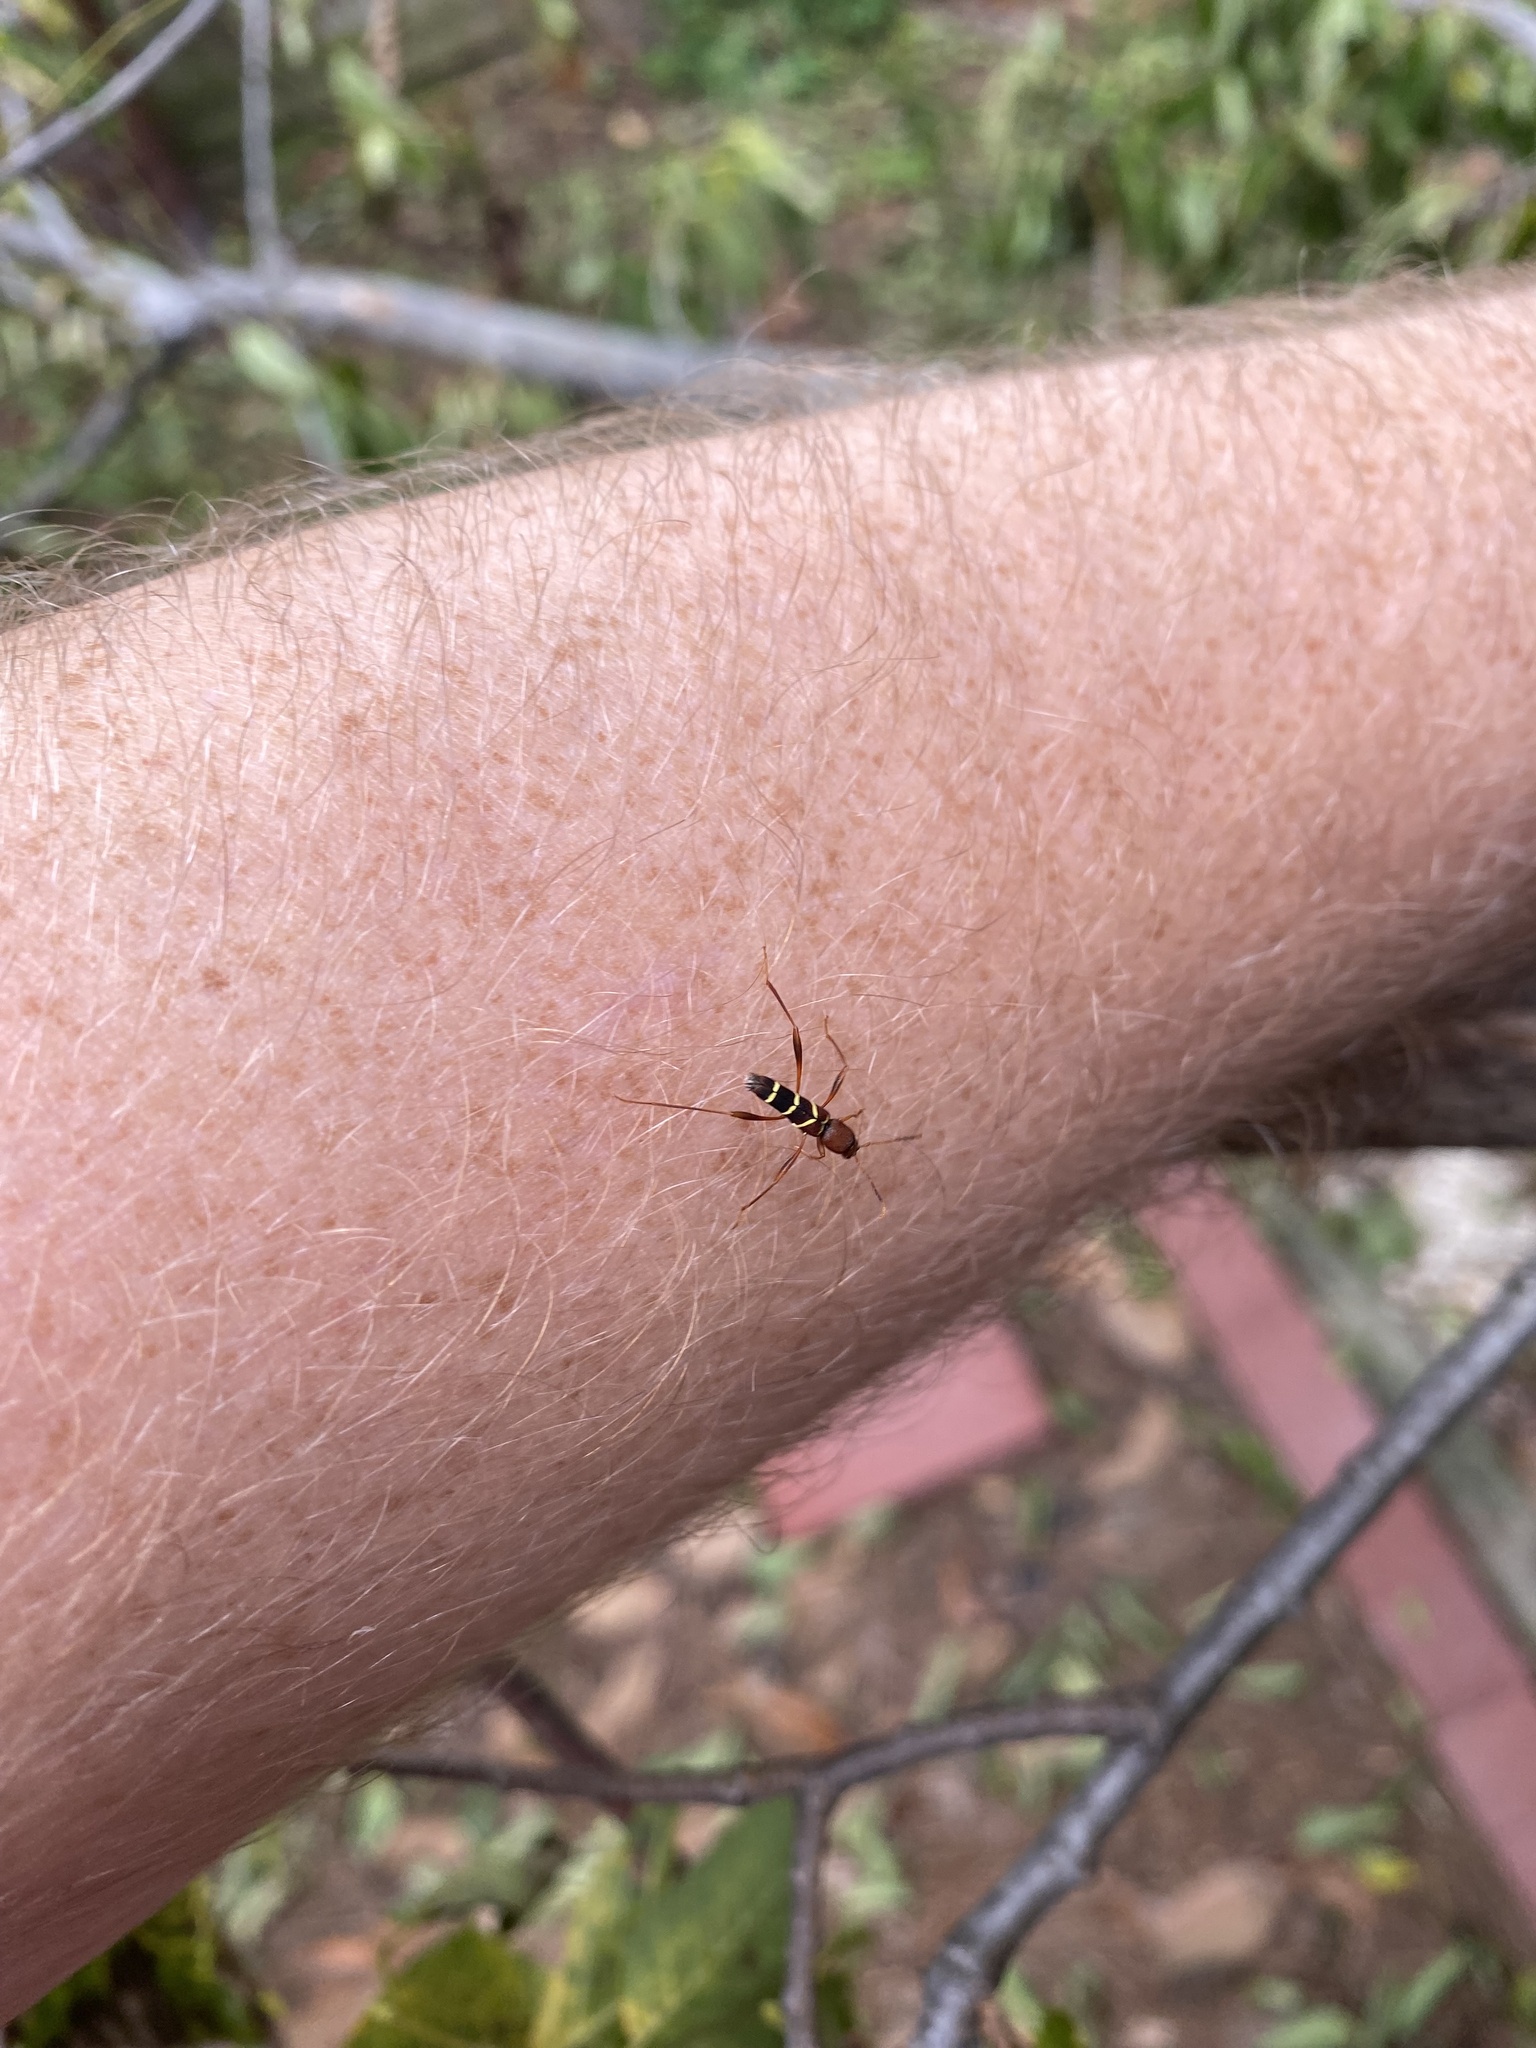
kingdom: Animalia
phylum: Arthropoda
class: Insecta
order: Coleoptera
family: Cerambycidae
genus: Neoclytus
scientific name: Neoclytus acuminatus
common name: Read-headed ash borer
